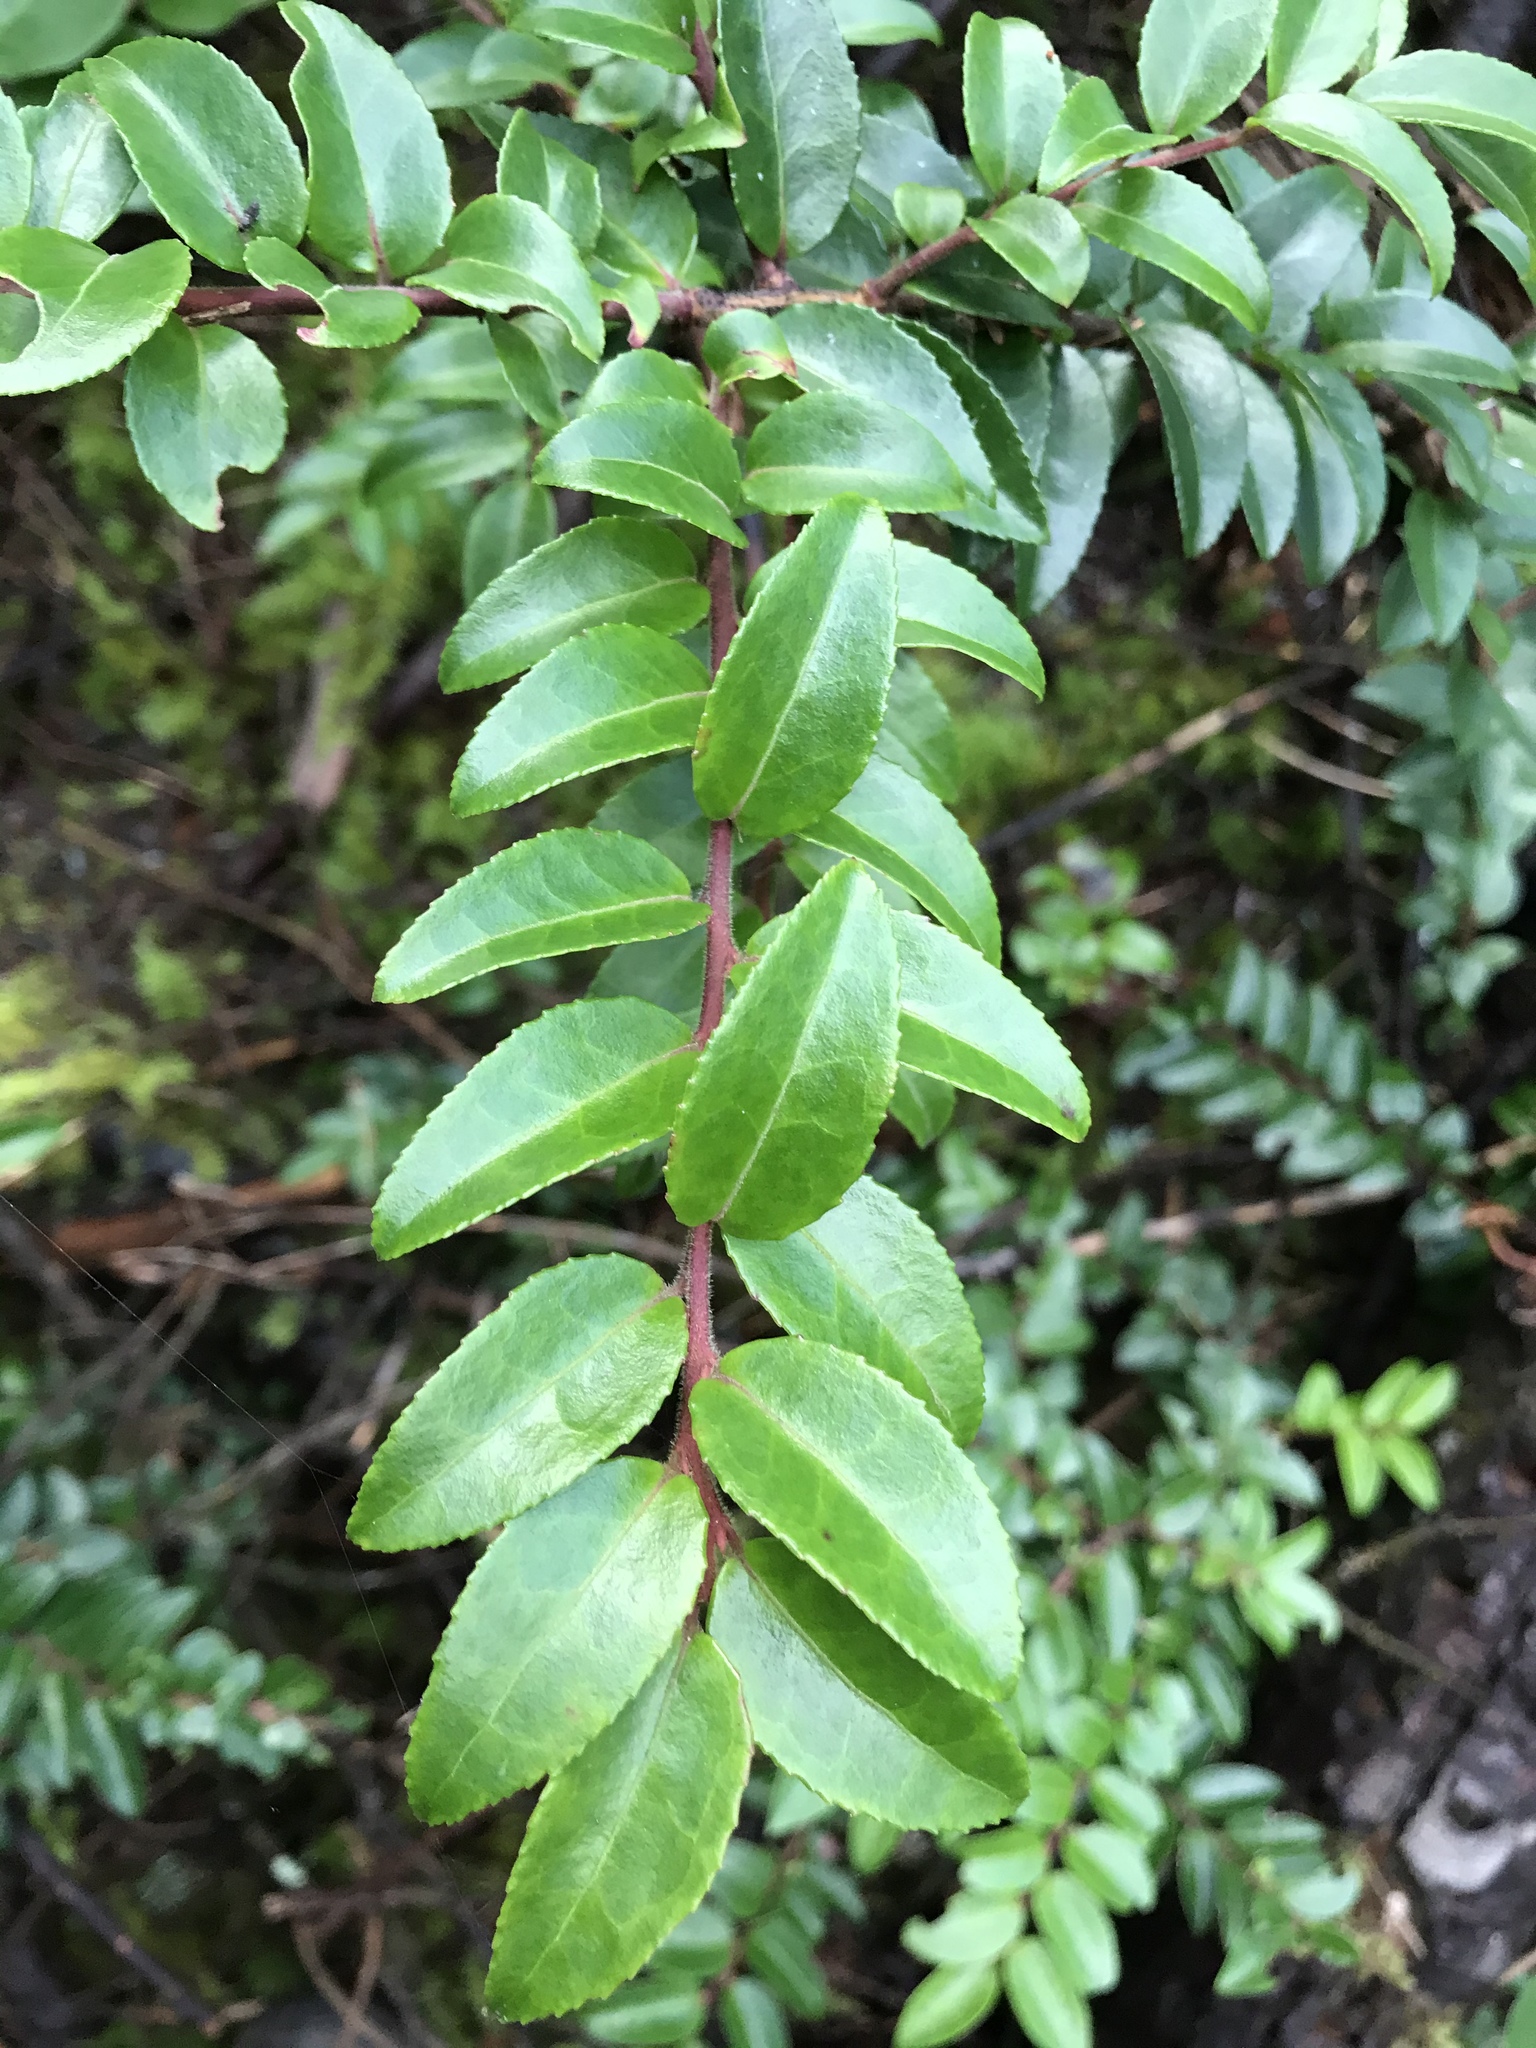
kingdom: Plantae
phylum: Tracheophyta
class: Magnoliopsida
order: Ericales
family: Ericaceae
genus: Vaccinium
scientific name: Vaccinium ovatum
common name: California-huckleberry
